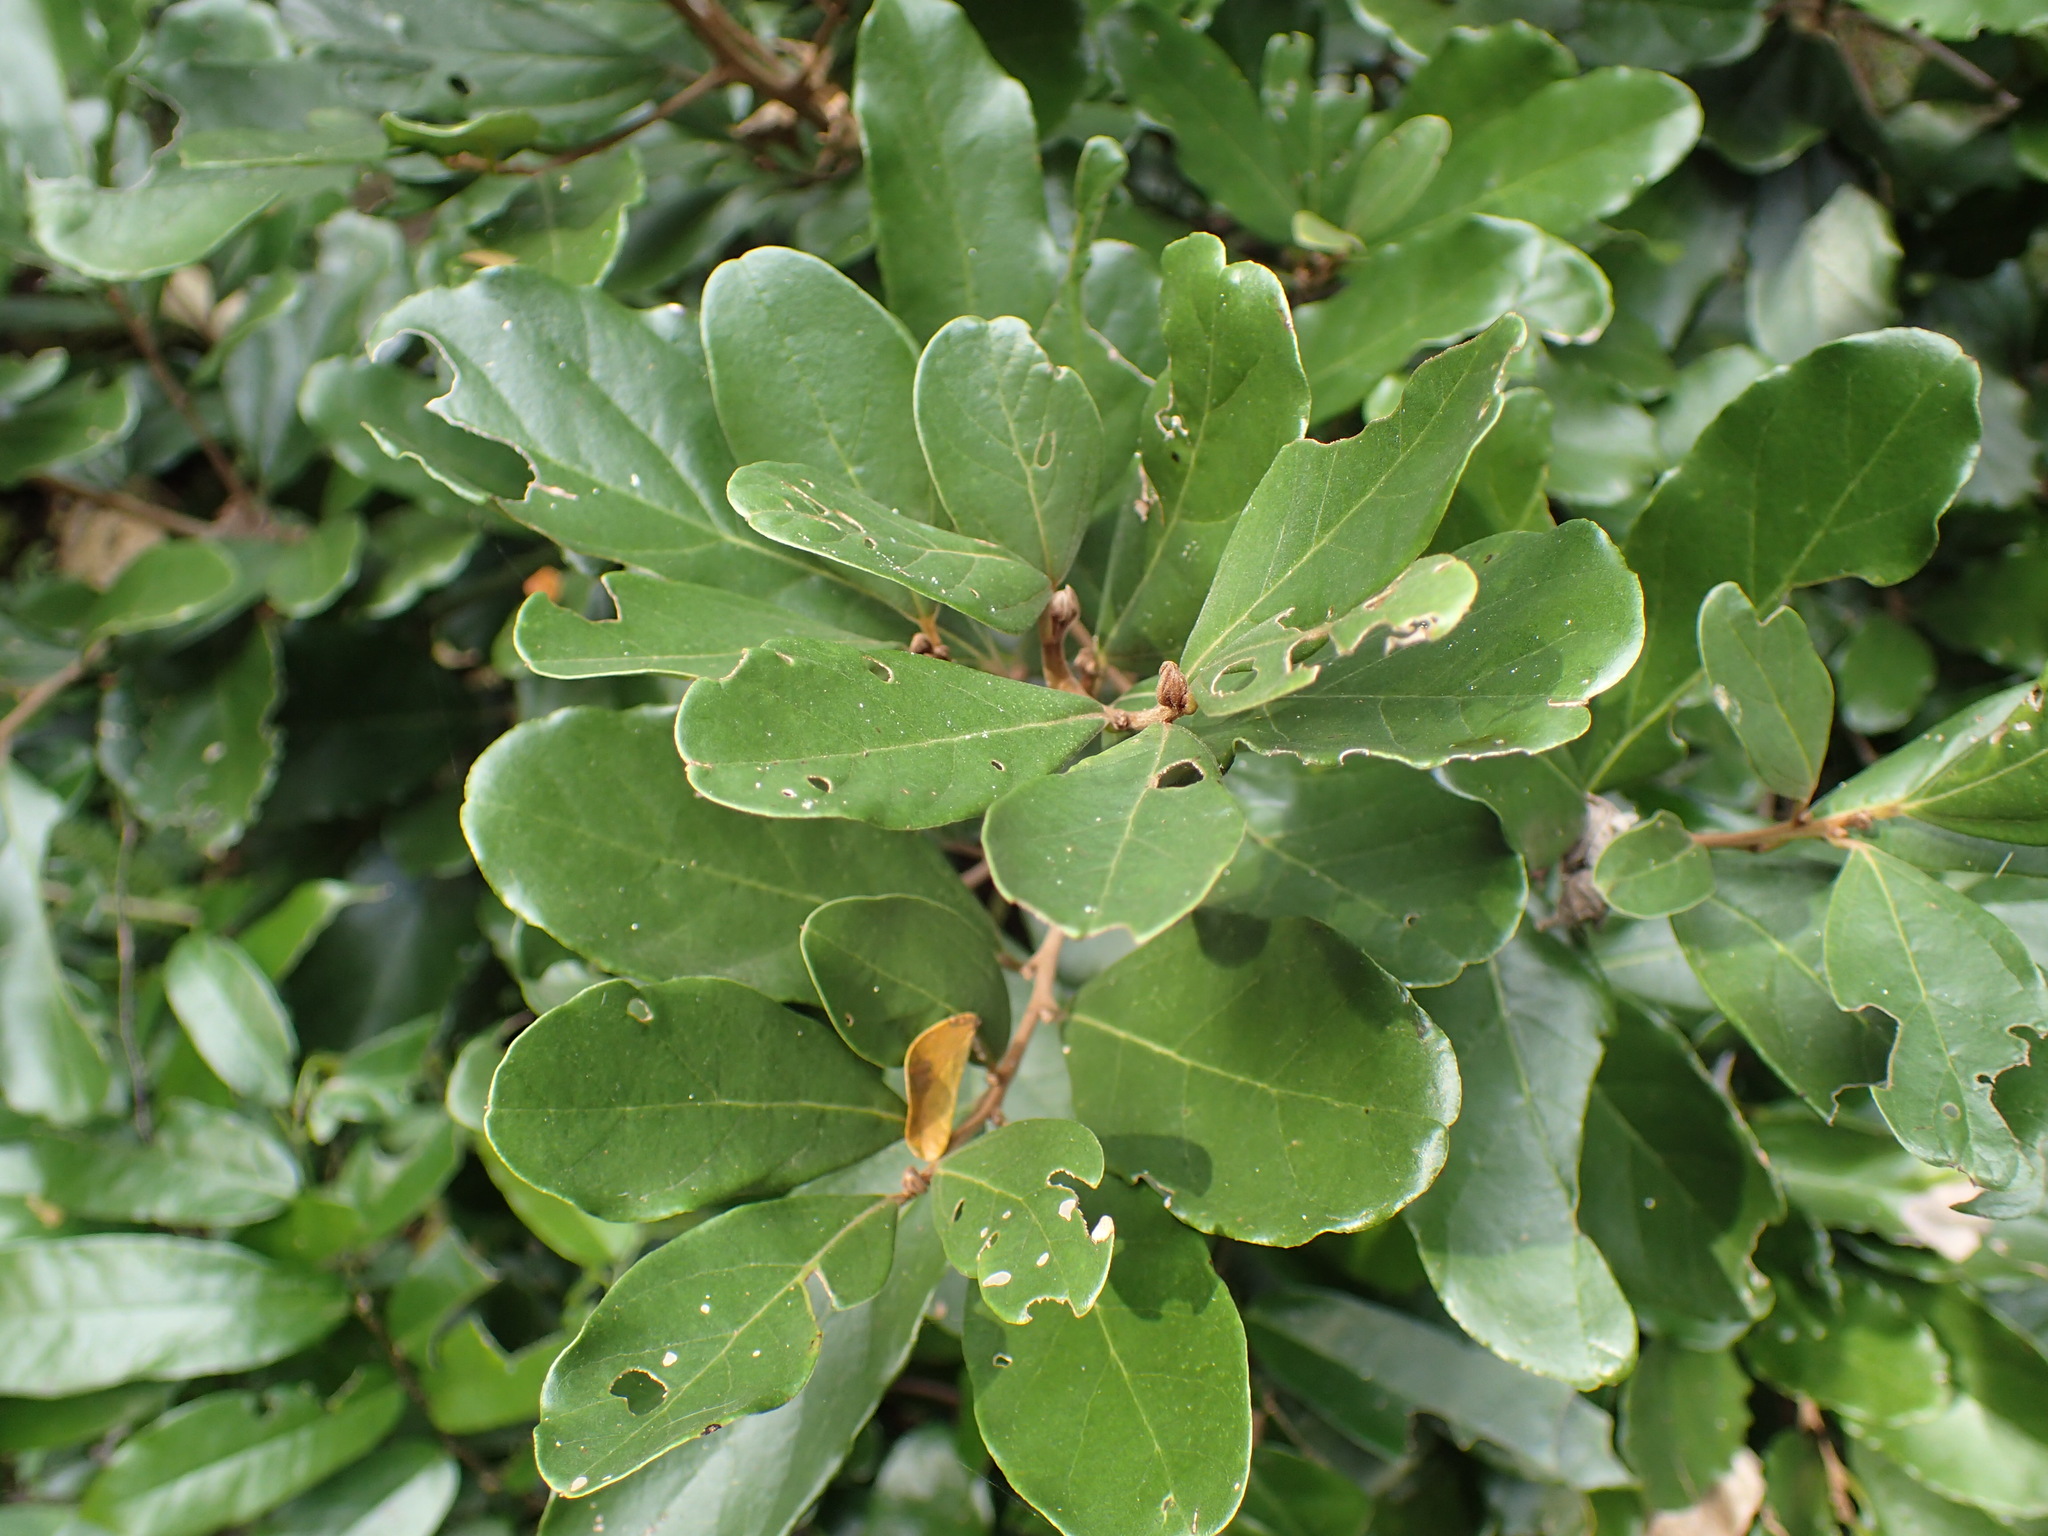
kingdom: Plantae
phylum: Tracheophyta
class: Magnoliopsida
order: Laurales
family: Lauraceae
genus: Cryptocarya
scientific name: Cryptocarya latifolia
